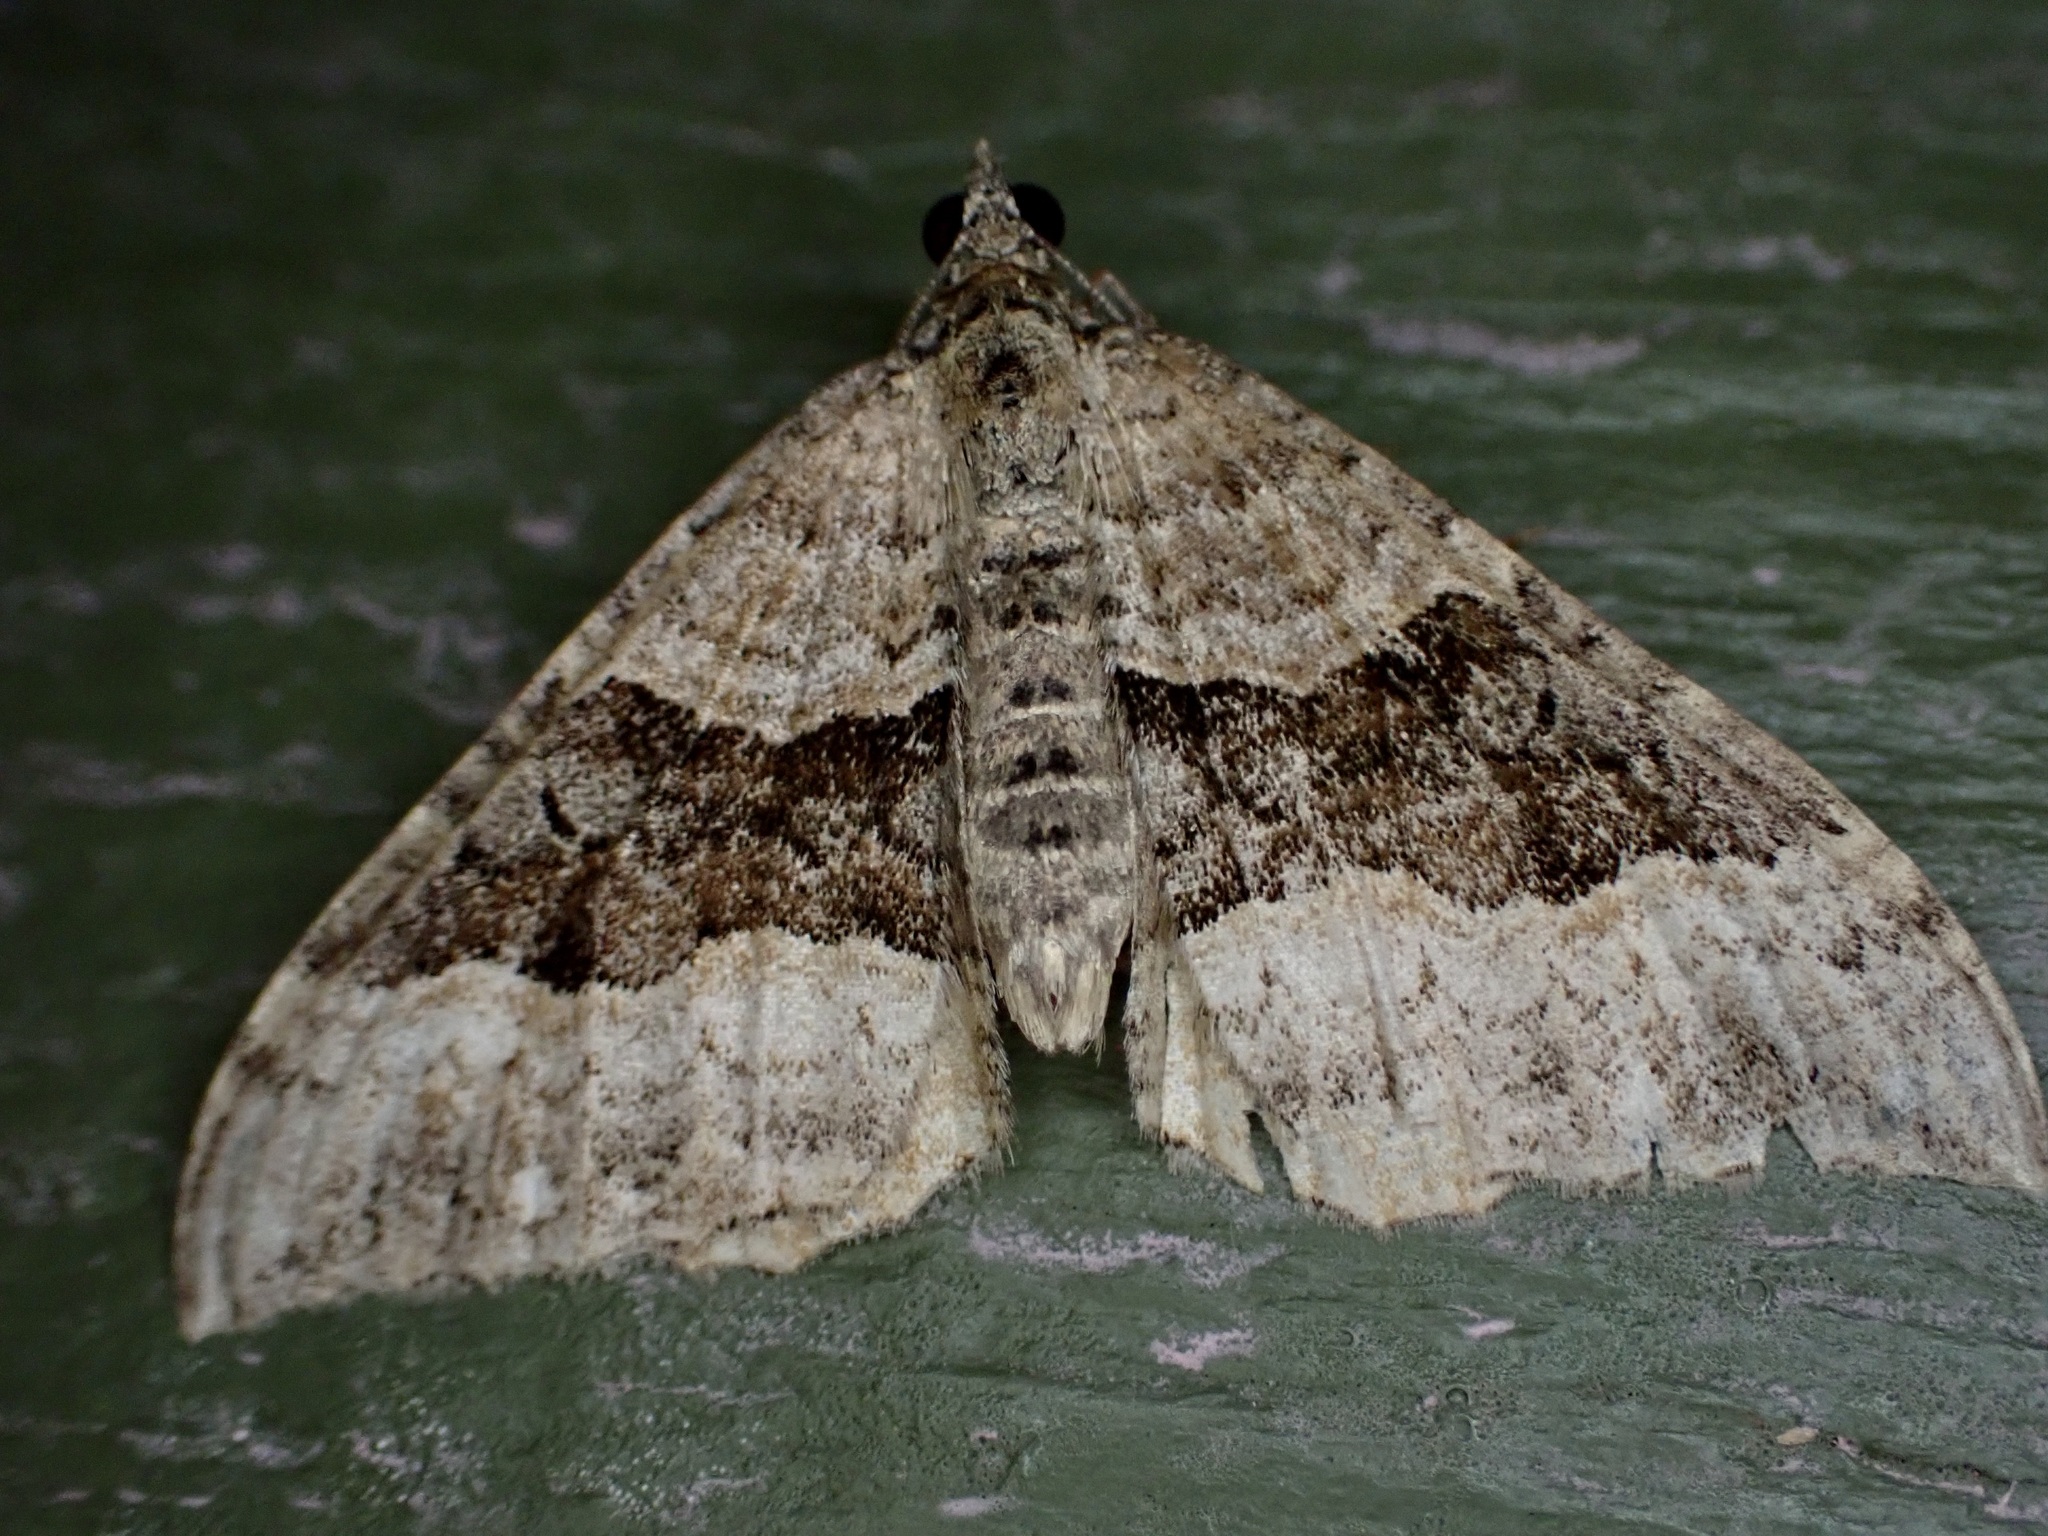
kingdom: Animalia
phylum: Arthropoda
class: Insecta
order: Lepidoptera
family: Geometridae
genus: Hydriomena
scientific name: Hydriomena deltoidata
